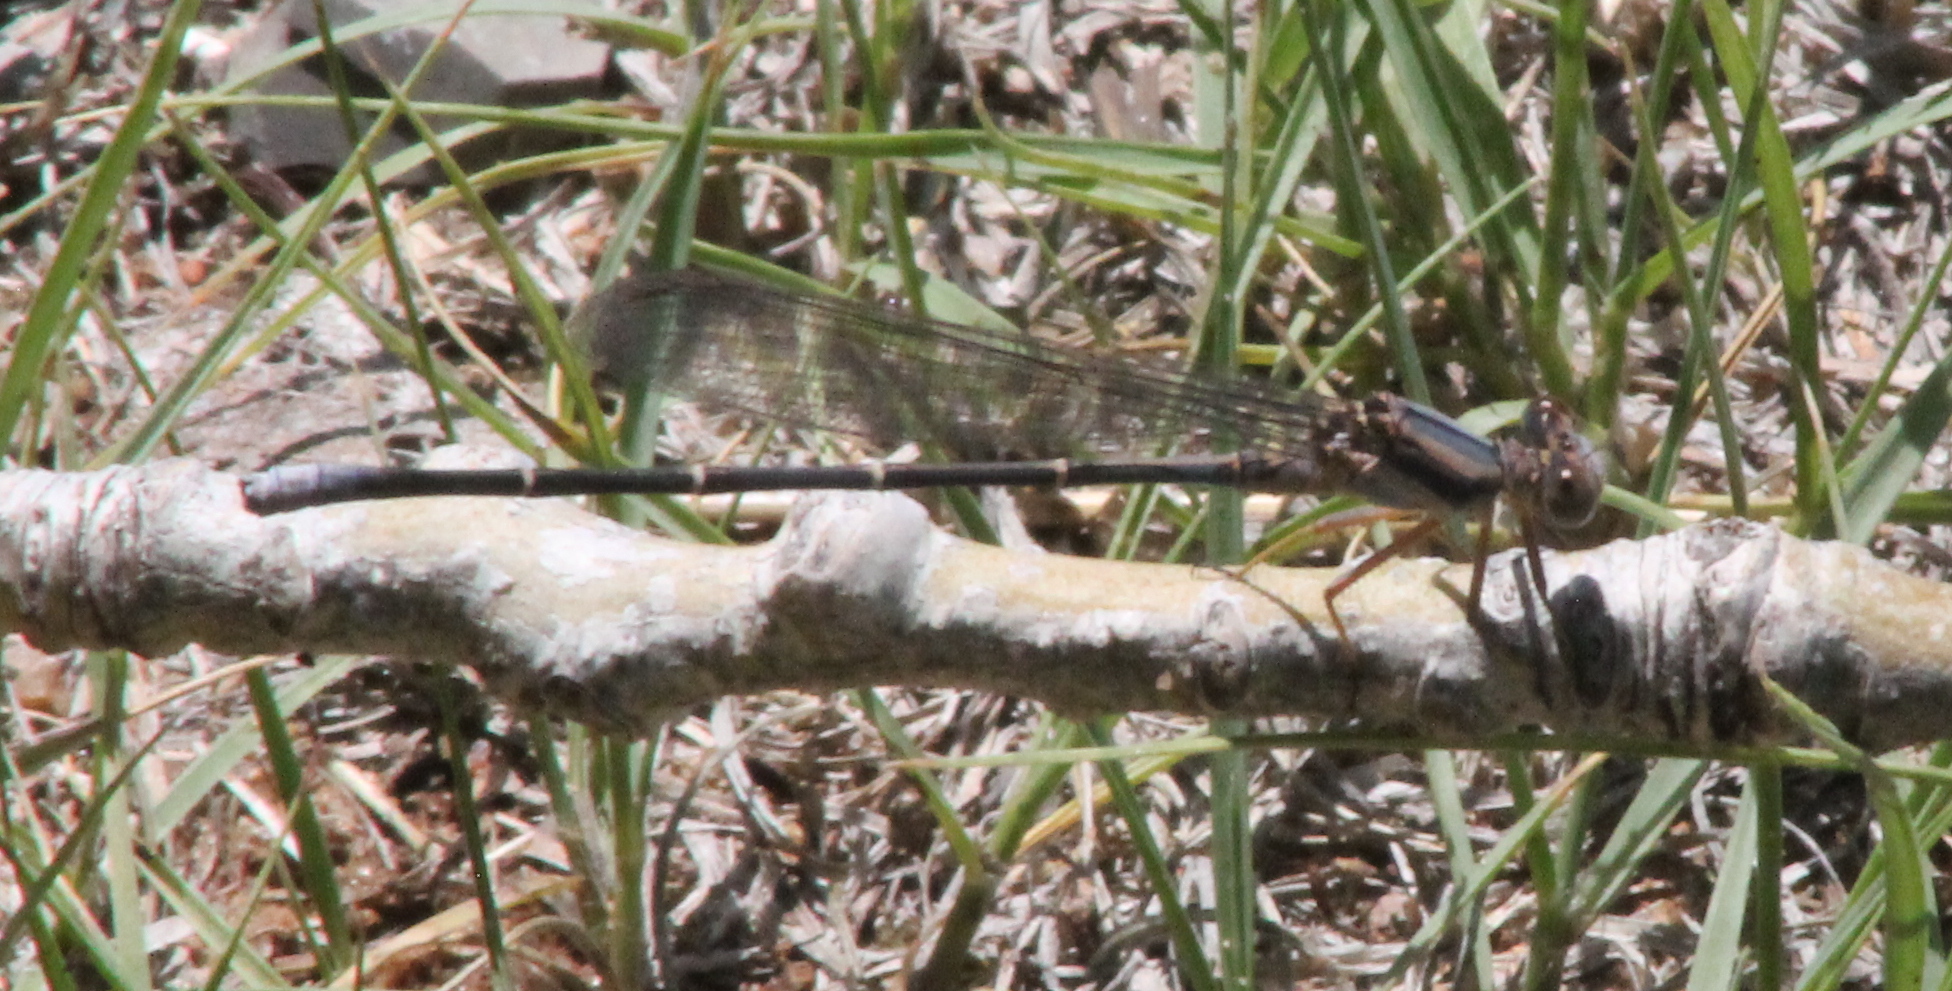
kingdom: Animalia
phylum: Arthropoda
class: Insecta
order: Odonata
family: Coenagrionidae
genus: Argia
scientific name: Argia moesta
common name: Powdered dancer
